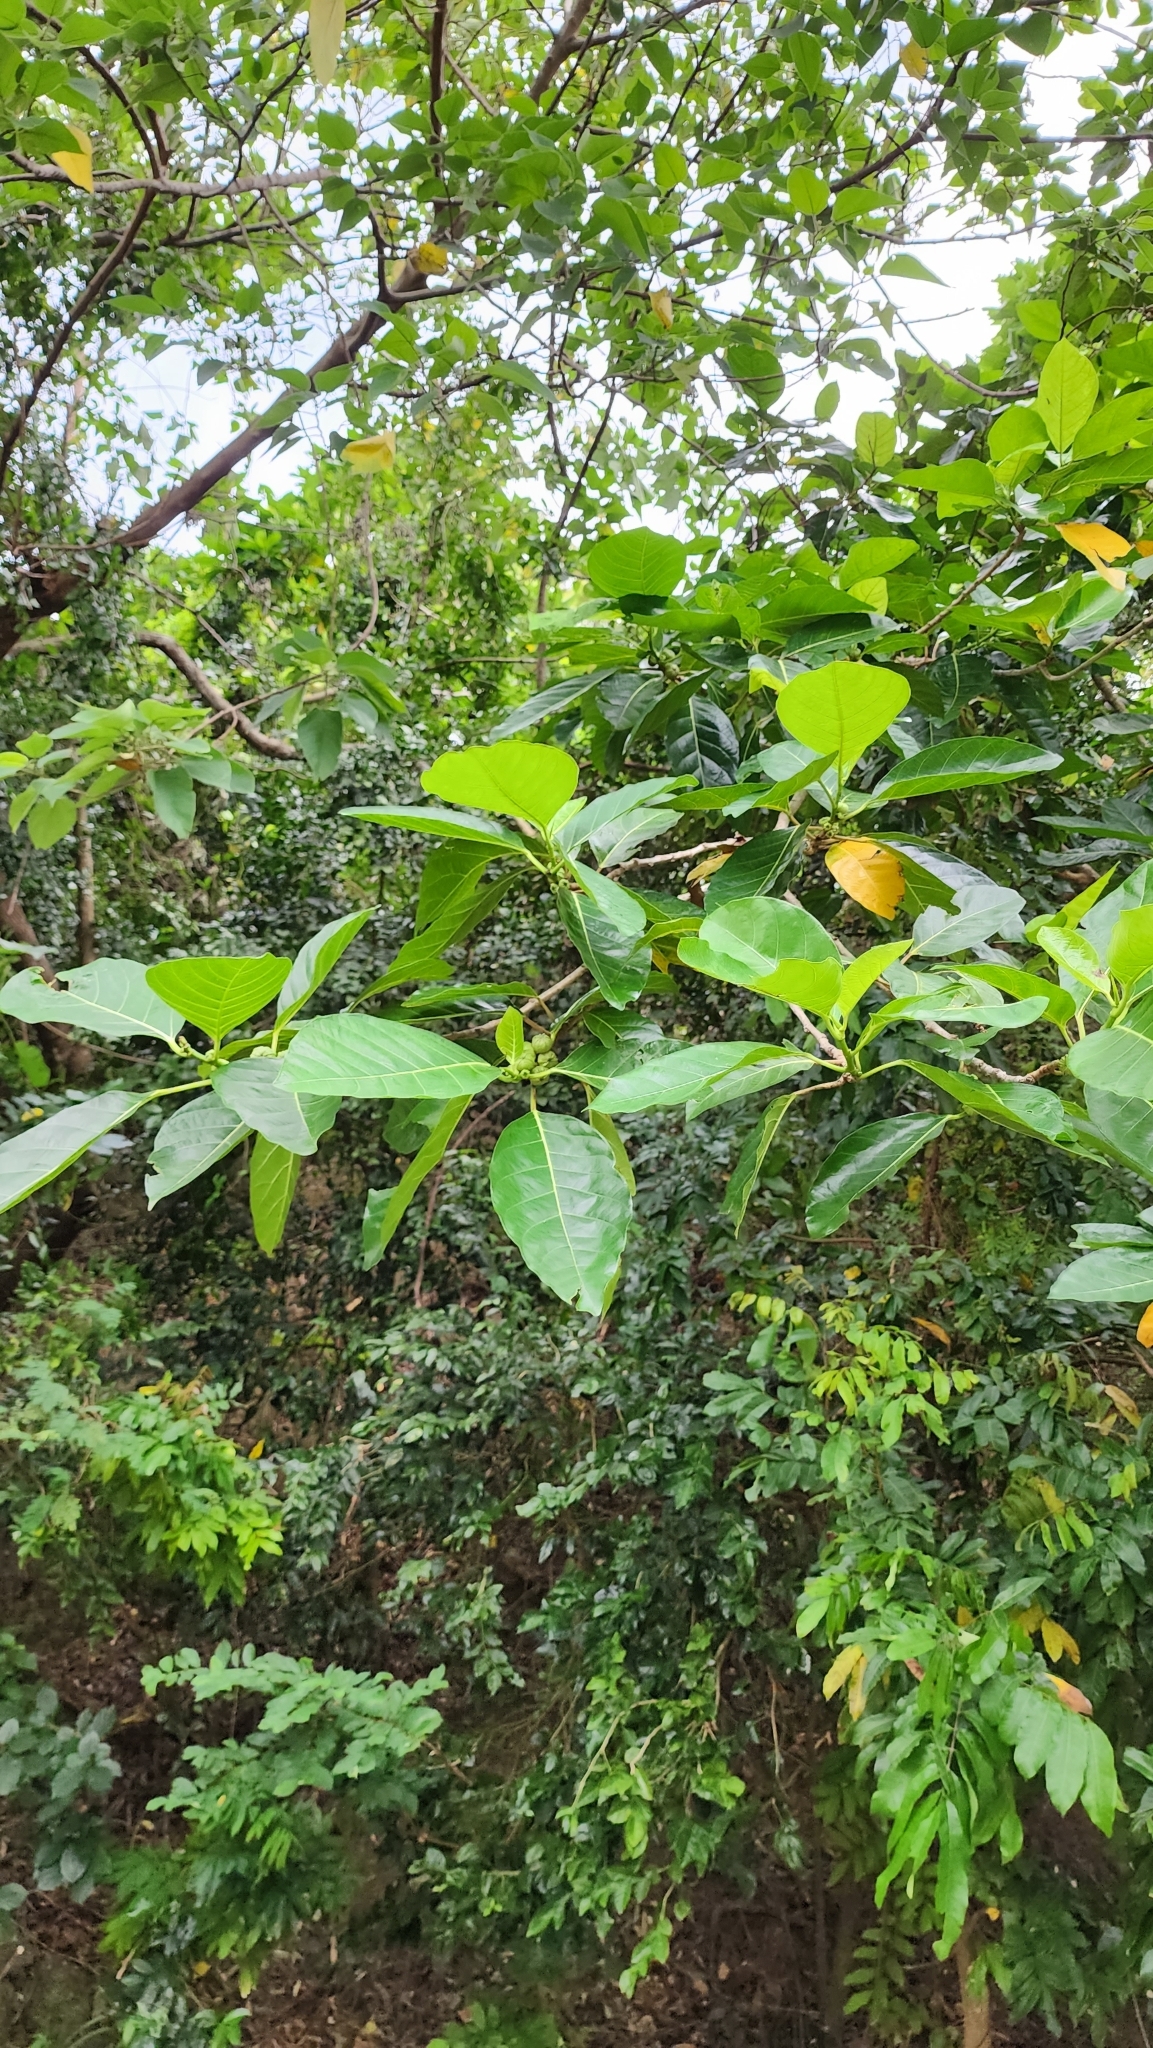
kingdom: Plantae
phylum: Tracheophyta
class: Magnoliopsida
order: Rosales
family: Moraceae
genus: Ficus
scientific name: Ficus septica
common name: Septic fig
